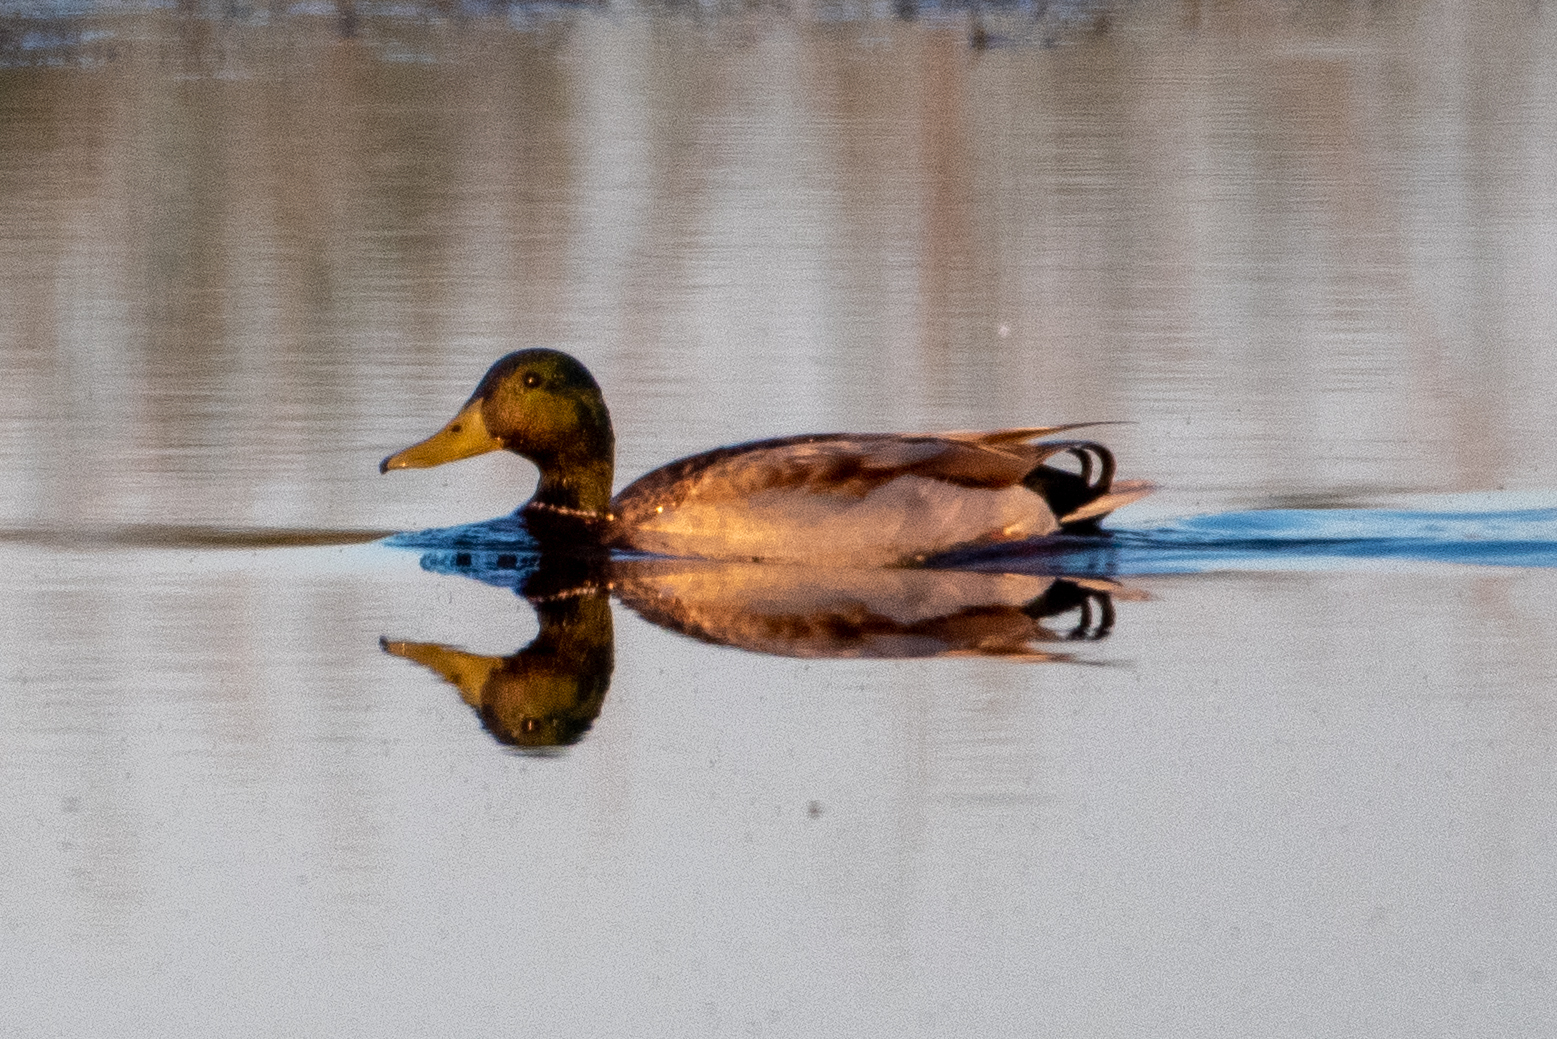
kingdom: Animalia
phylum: Chordata
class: Aves
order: Anseriformes
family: Anatidae
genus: Anas
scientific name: Anas platyrhynchos
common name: Mallard
